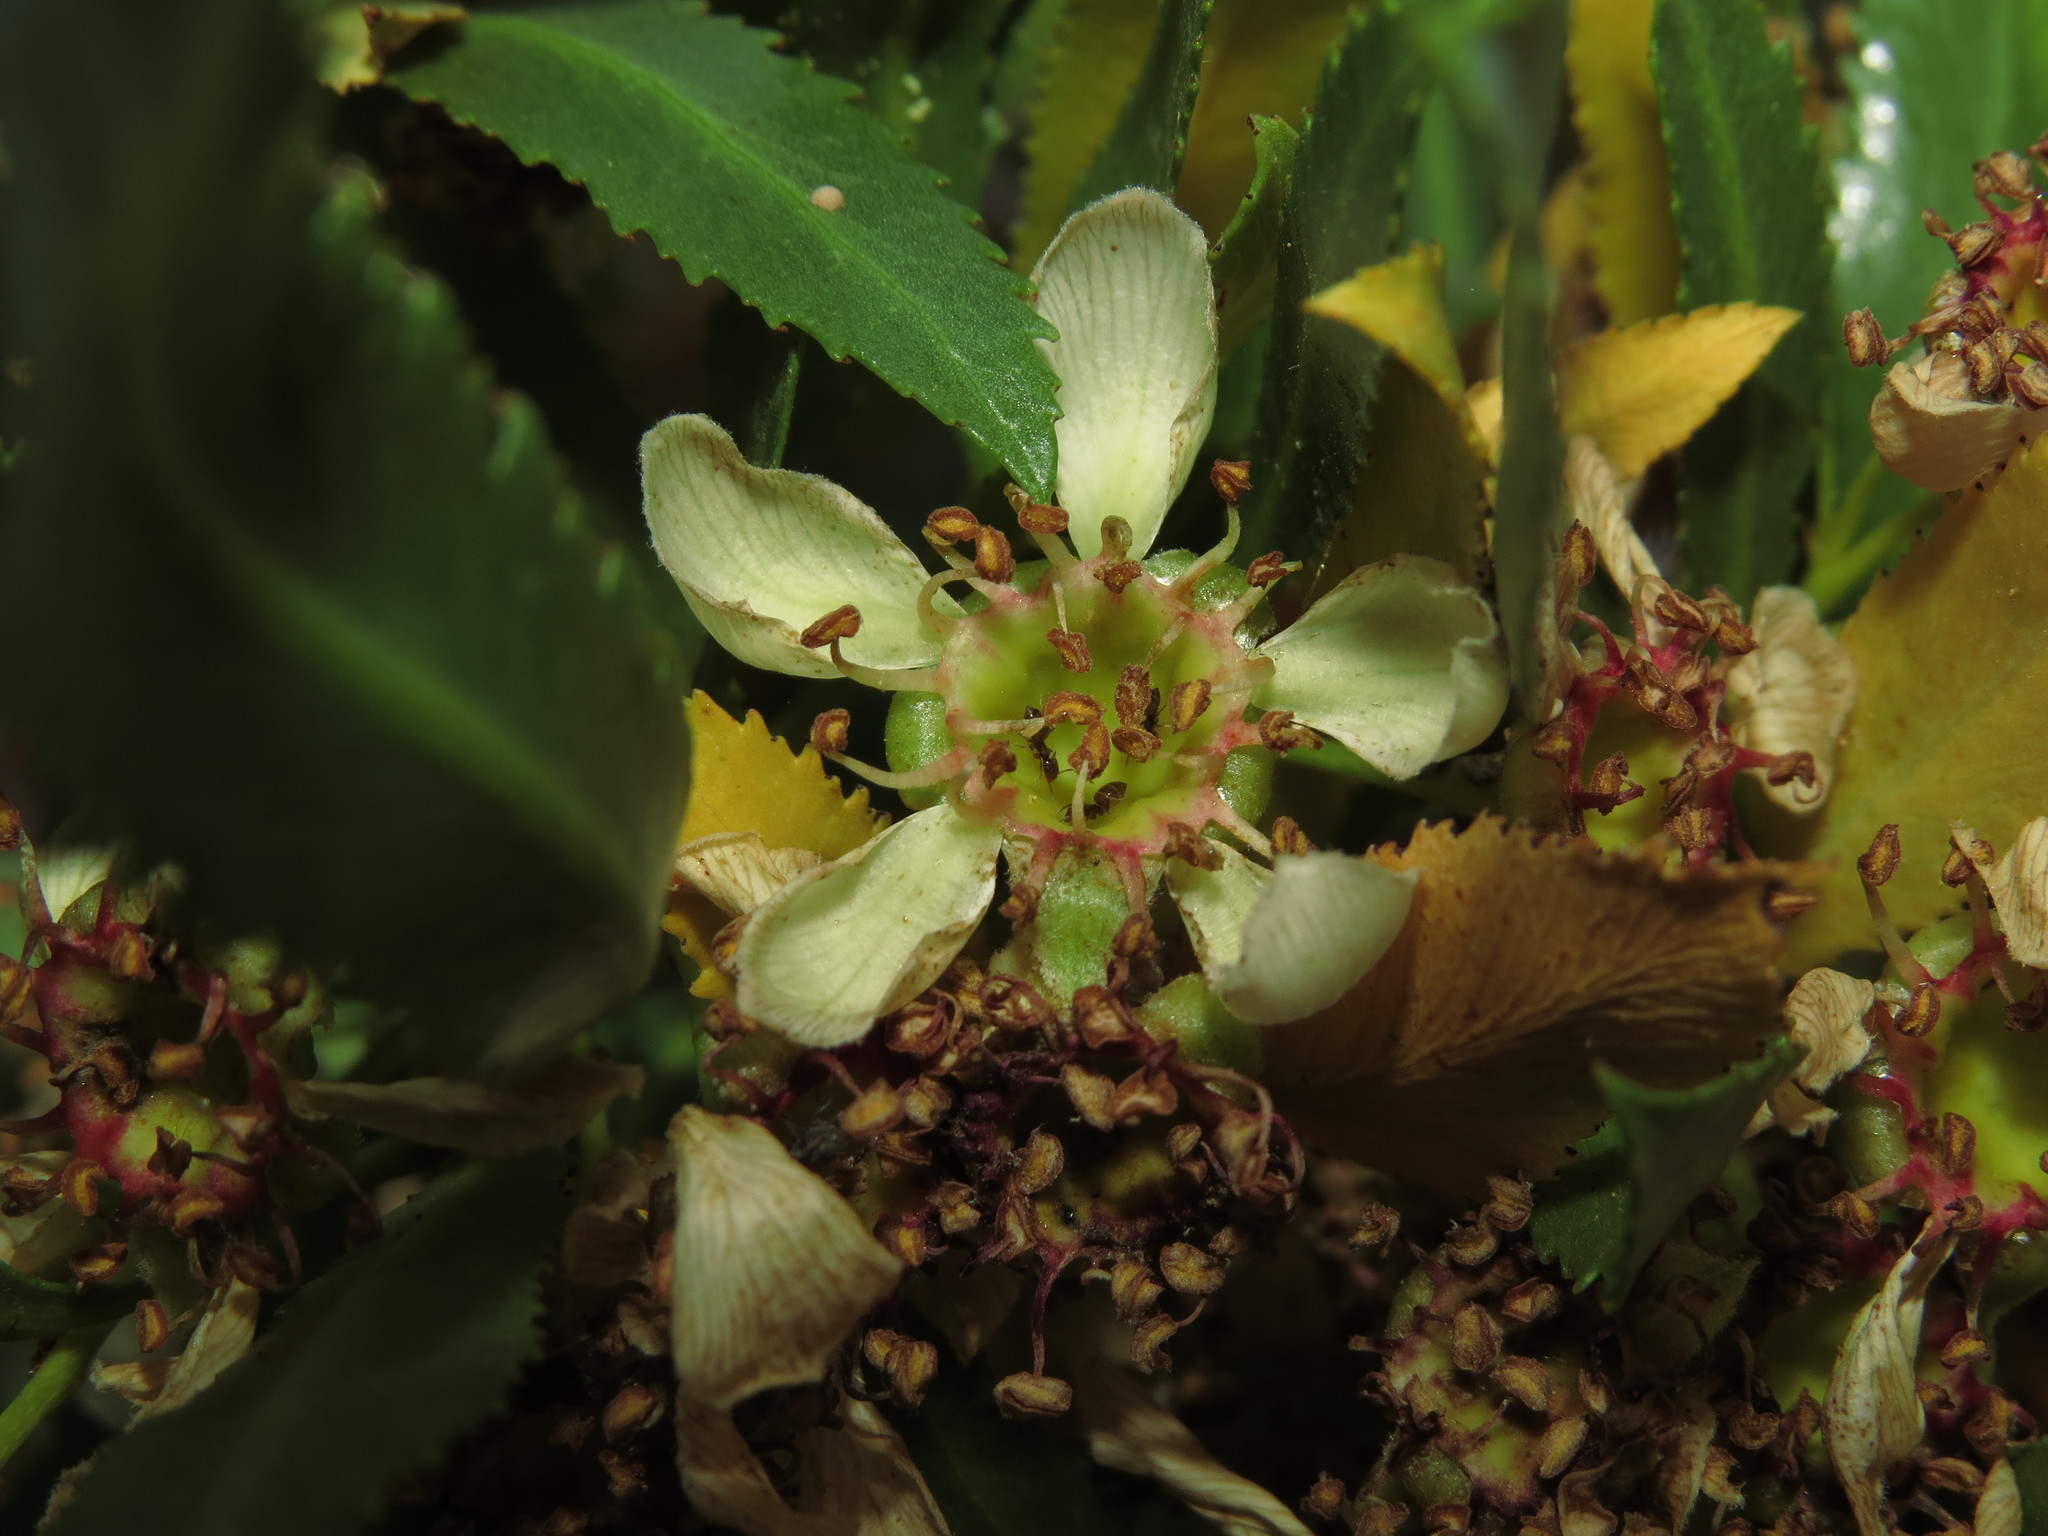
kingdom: Plantae
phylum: Tracheophyta
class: Magnoliopsida
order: Rosales
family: Rosaceae
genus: Kageneckia
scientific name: Kageneckia angustifolia
